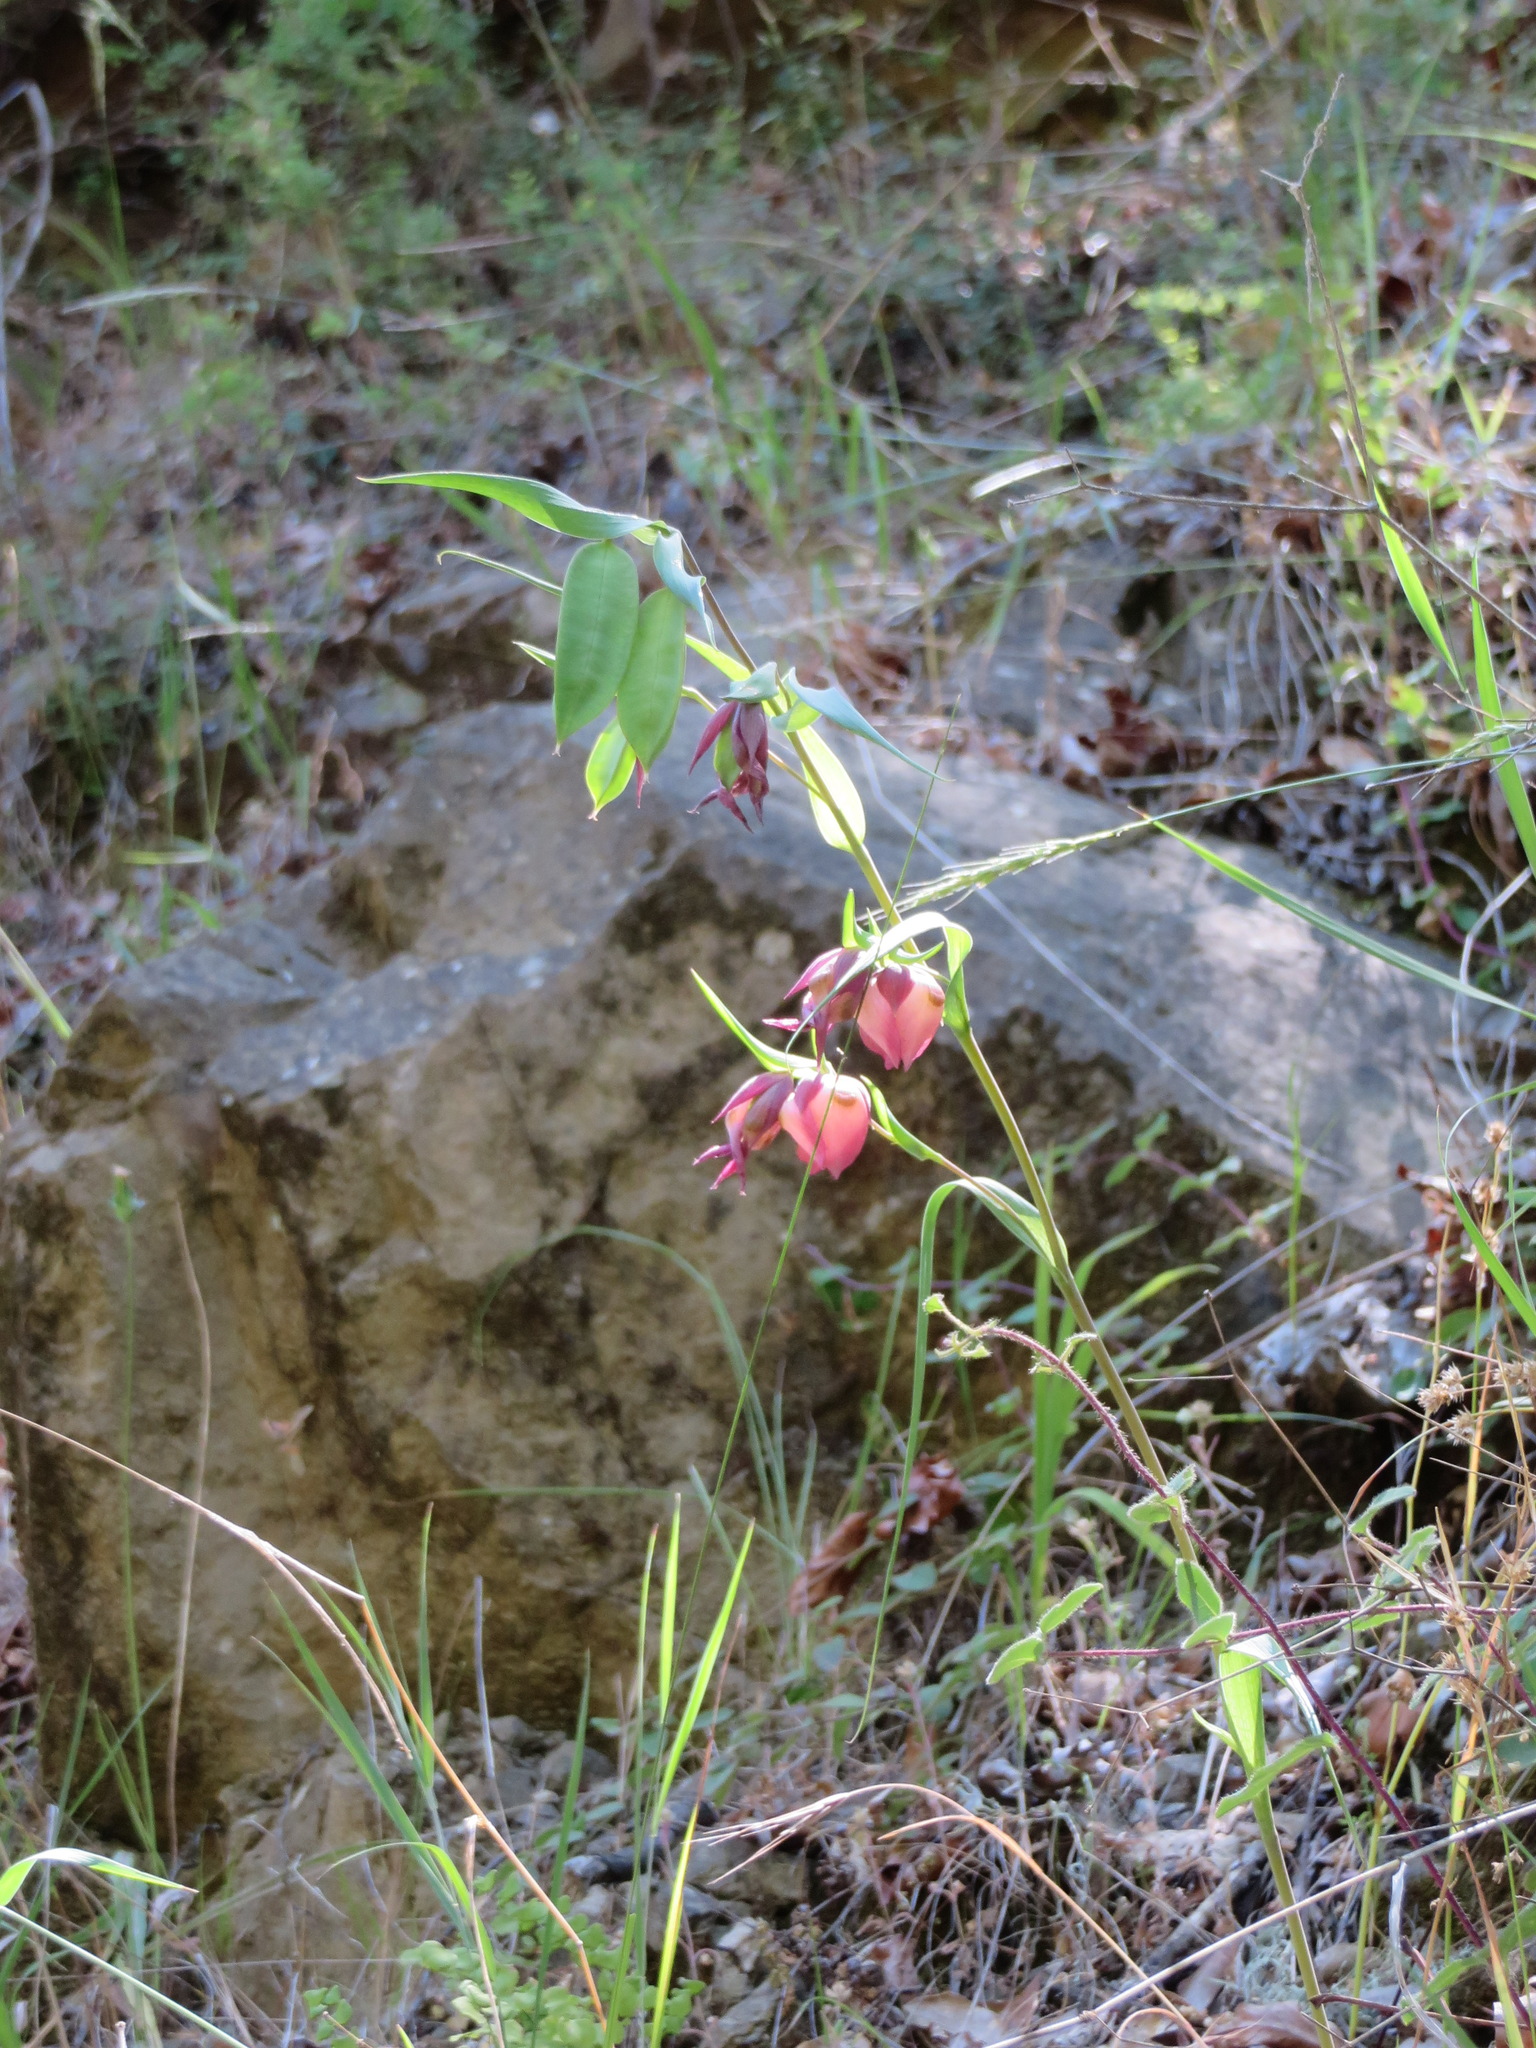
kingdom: Plantae
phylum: Tracheophyta
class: Liliopsida
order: Liliales
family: Liliaceae
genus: Calochortus
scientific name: Calochortus albus
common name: Fairy-lantern
